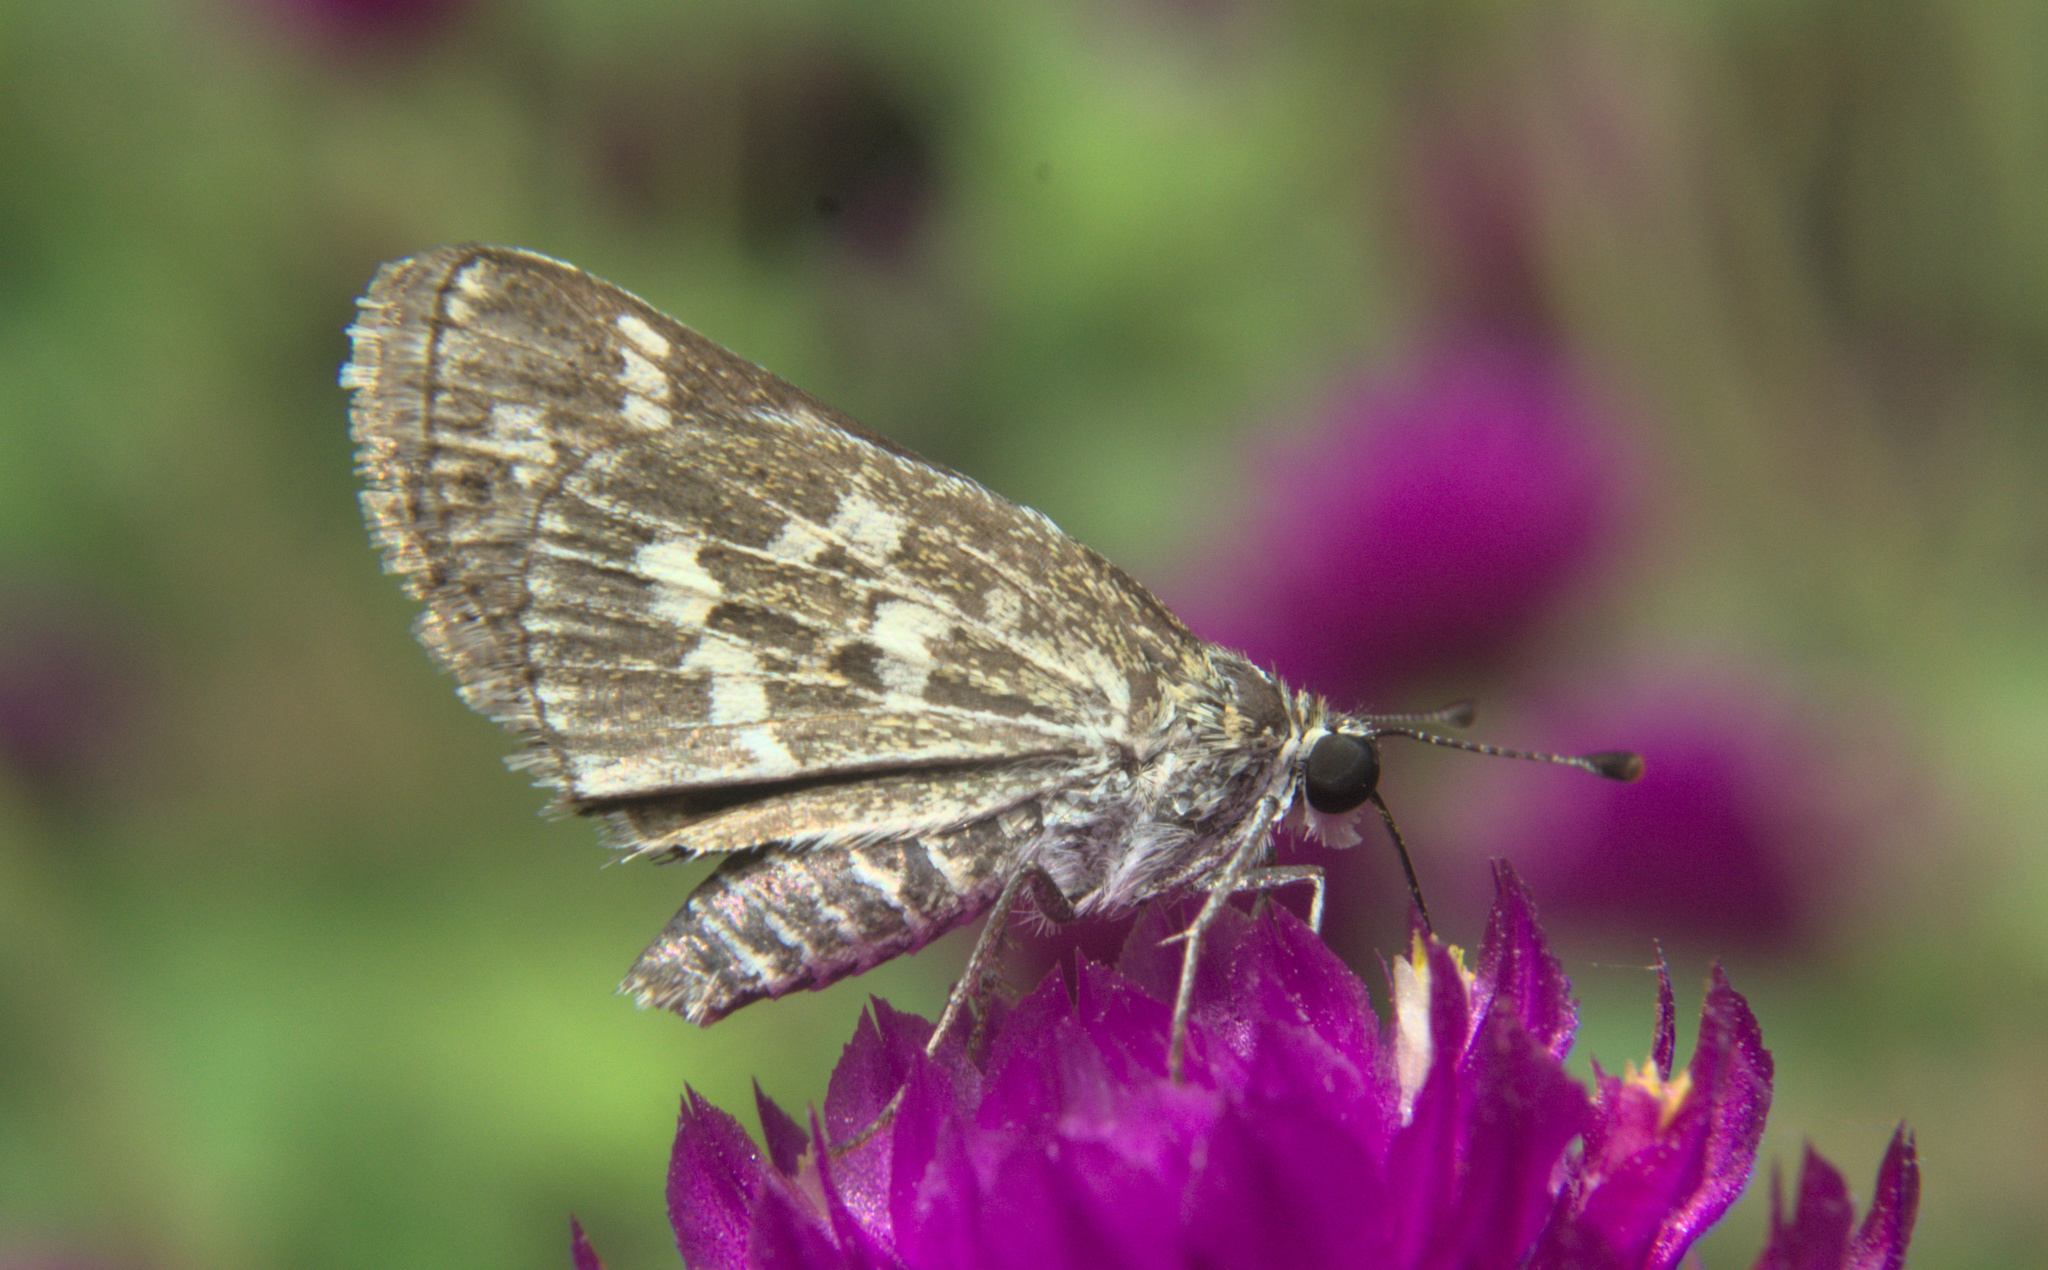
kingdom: Animalia
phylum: Arthropoda
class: Insecta
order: Lepidoptera
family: Hesperiidae
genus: Taractrocera
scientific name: Taractrocera maevius
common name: Common grass-dart
